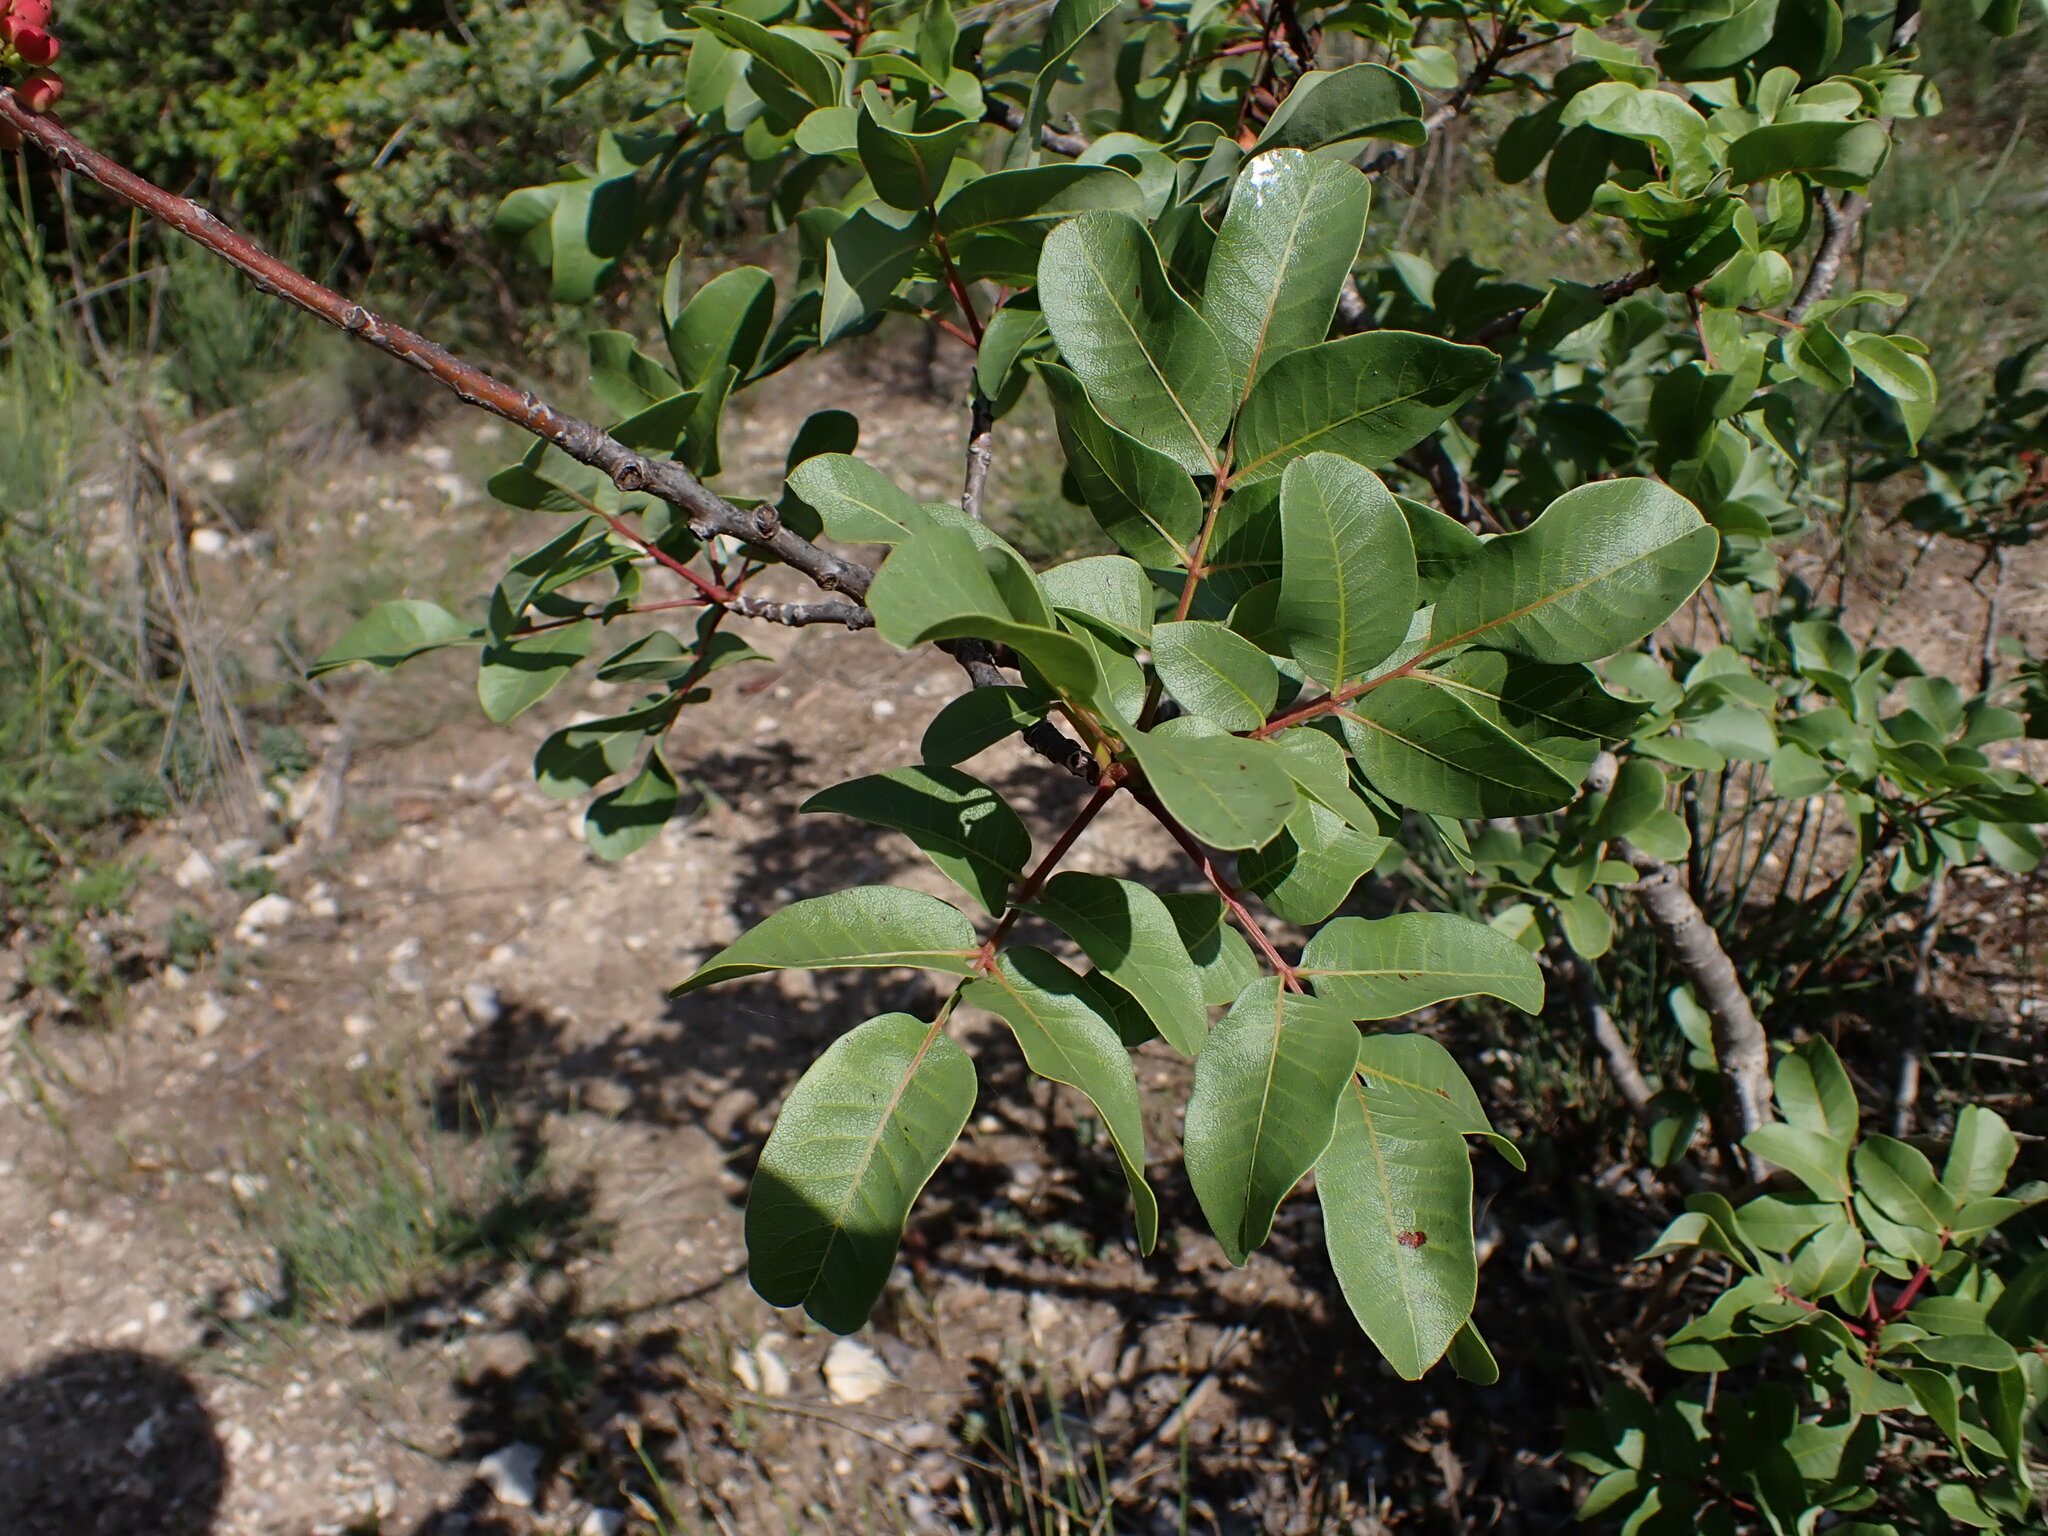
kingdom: Plantae
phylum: Tracheophyta
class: Magnoliopsida
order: Sapindales
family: Anacardiaceae
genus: Pistacia
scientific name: Pistacia terebinthus
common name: Terebinth
